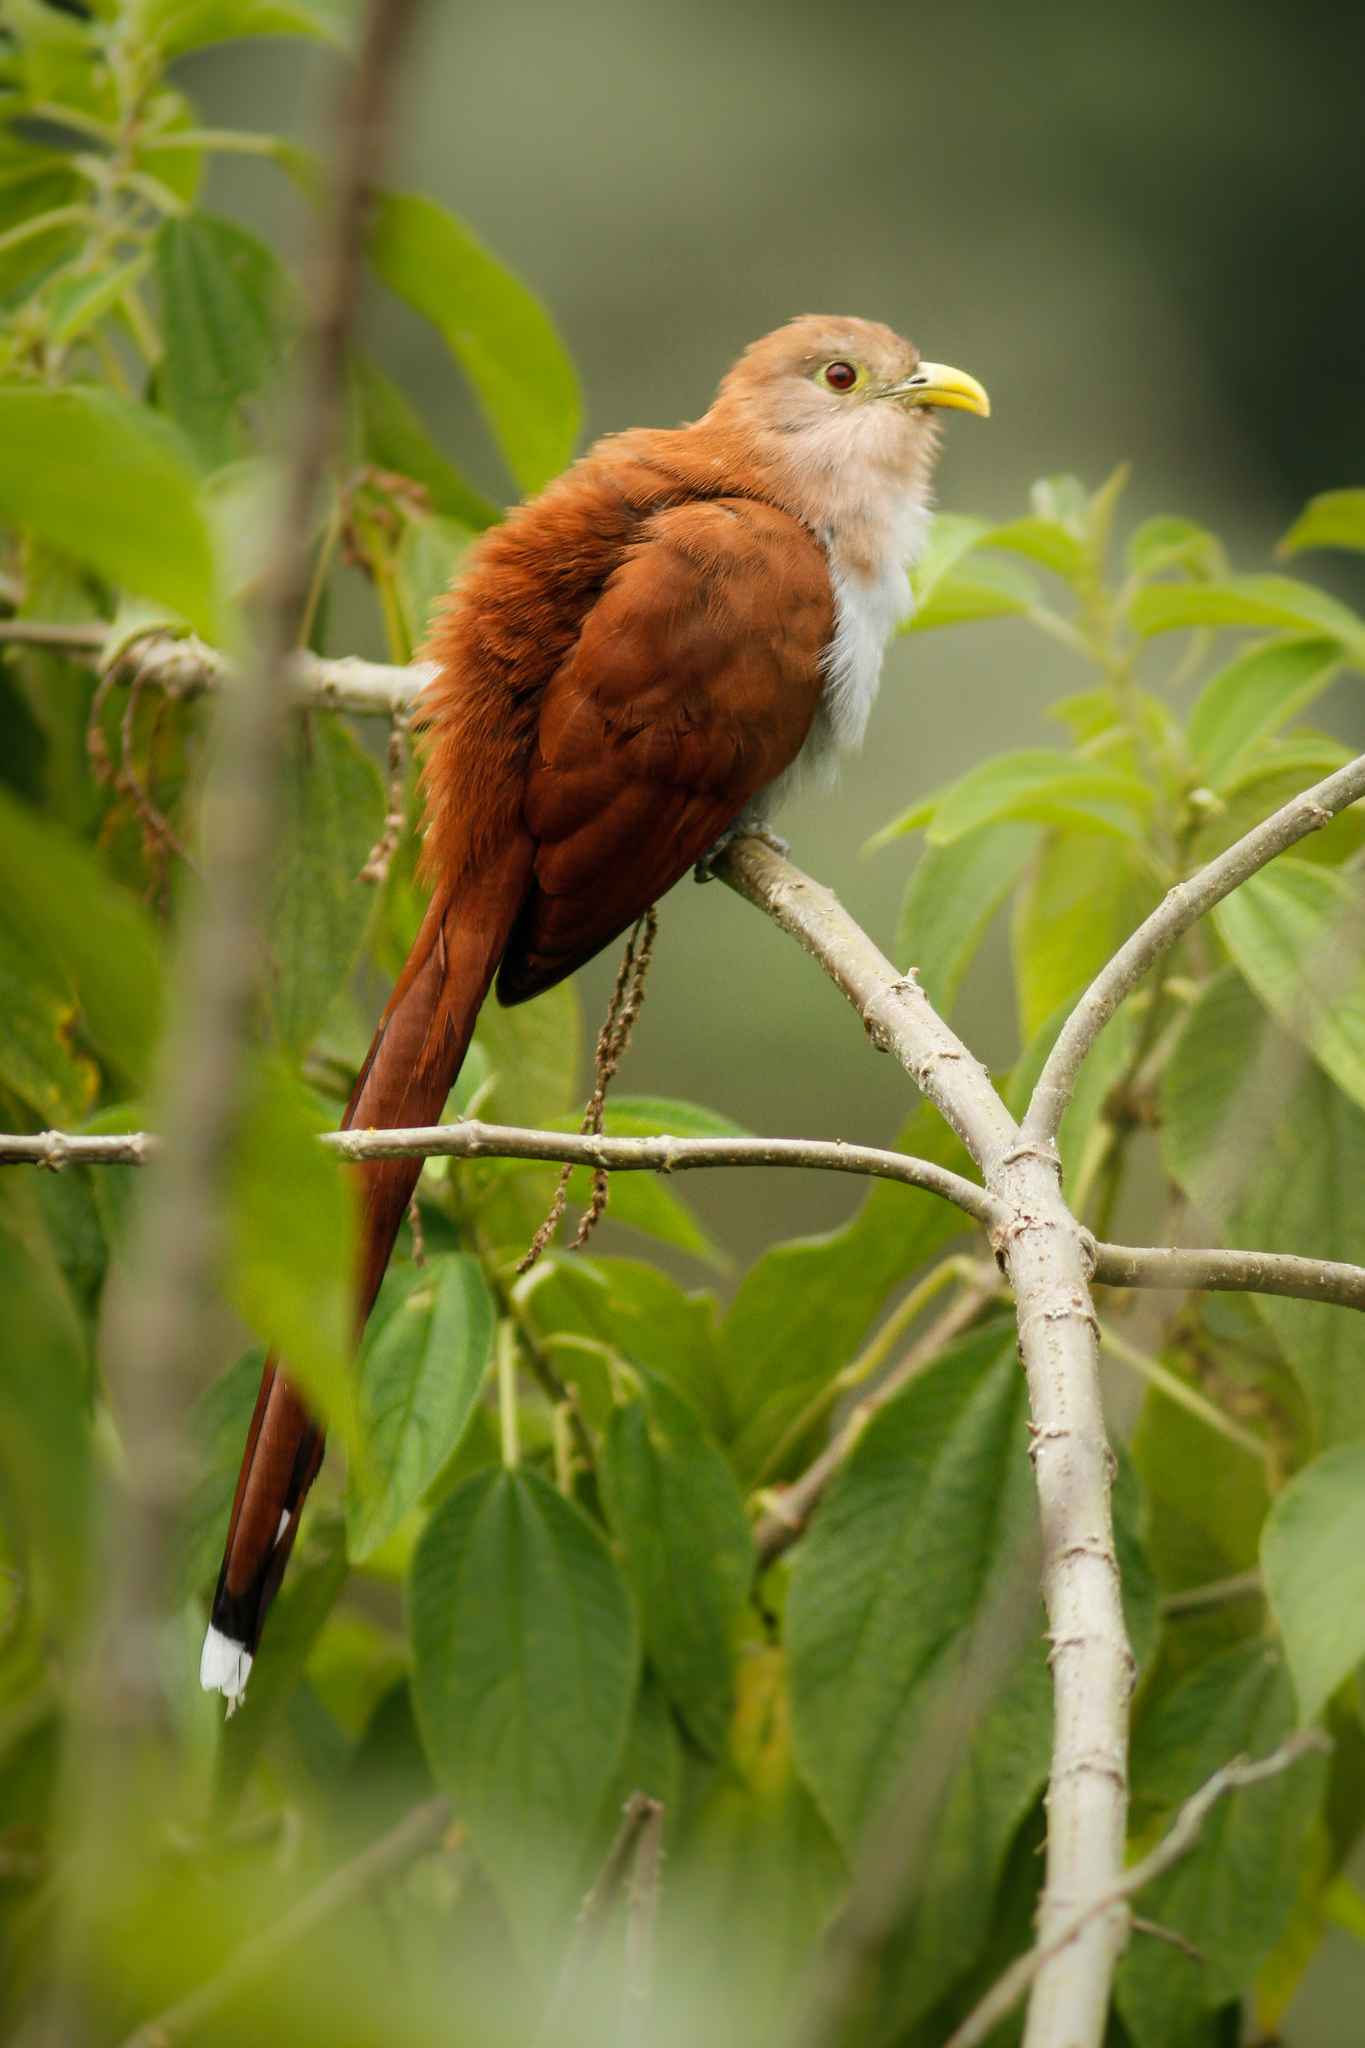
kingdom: Animalia
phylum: Chordata
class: Aves
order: Cuculiformes
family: Cuculidae
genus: Piaya
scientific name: Piaya cayana
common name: Squirrel cuckoo
